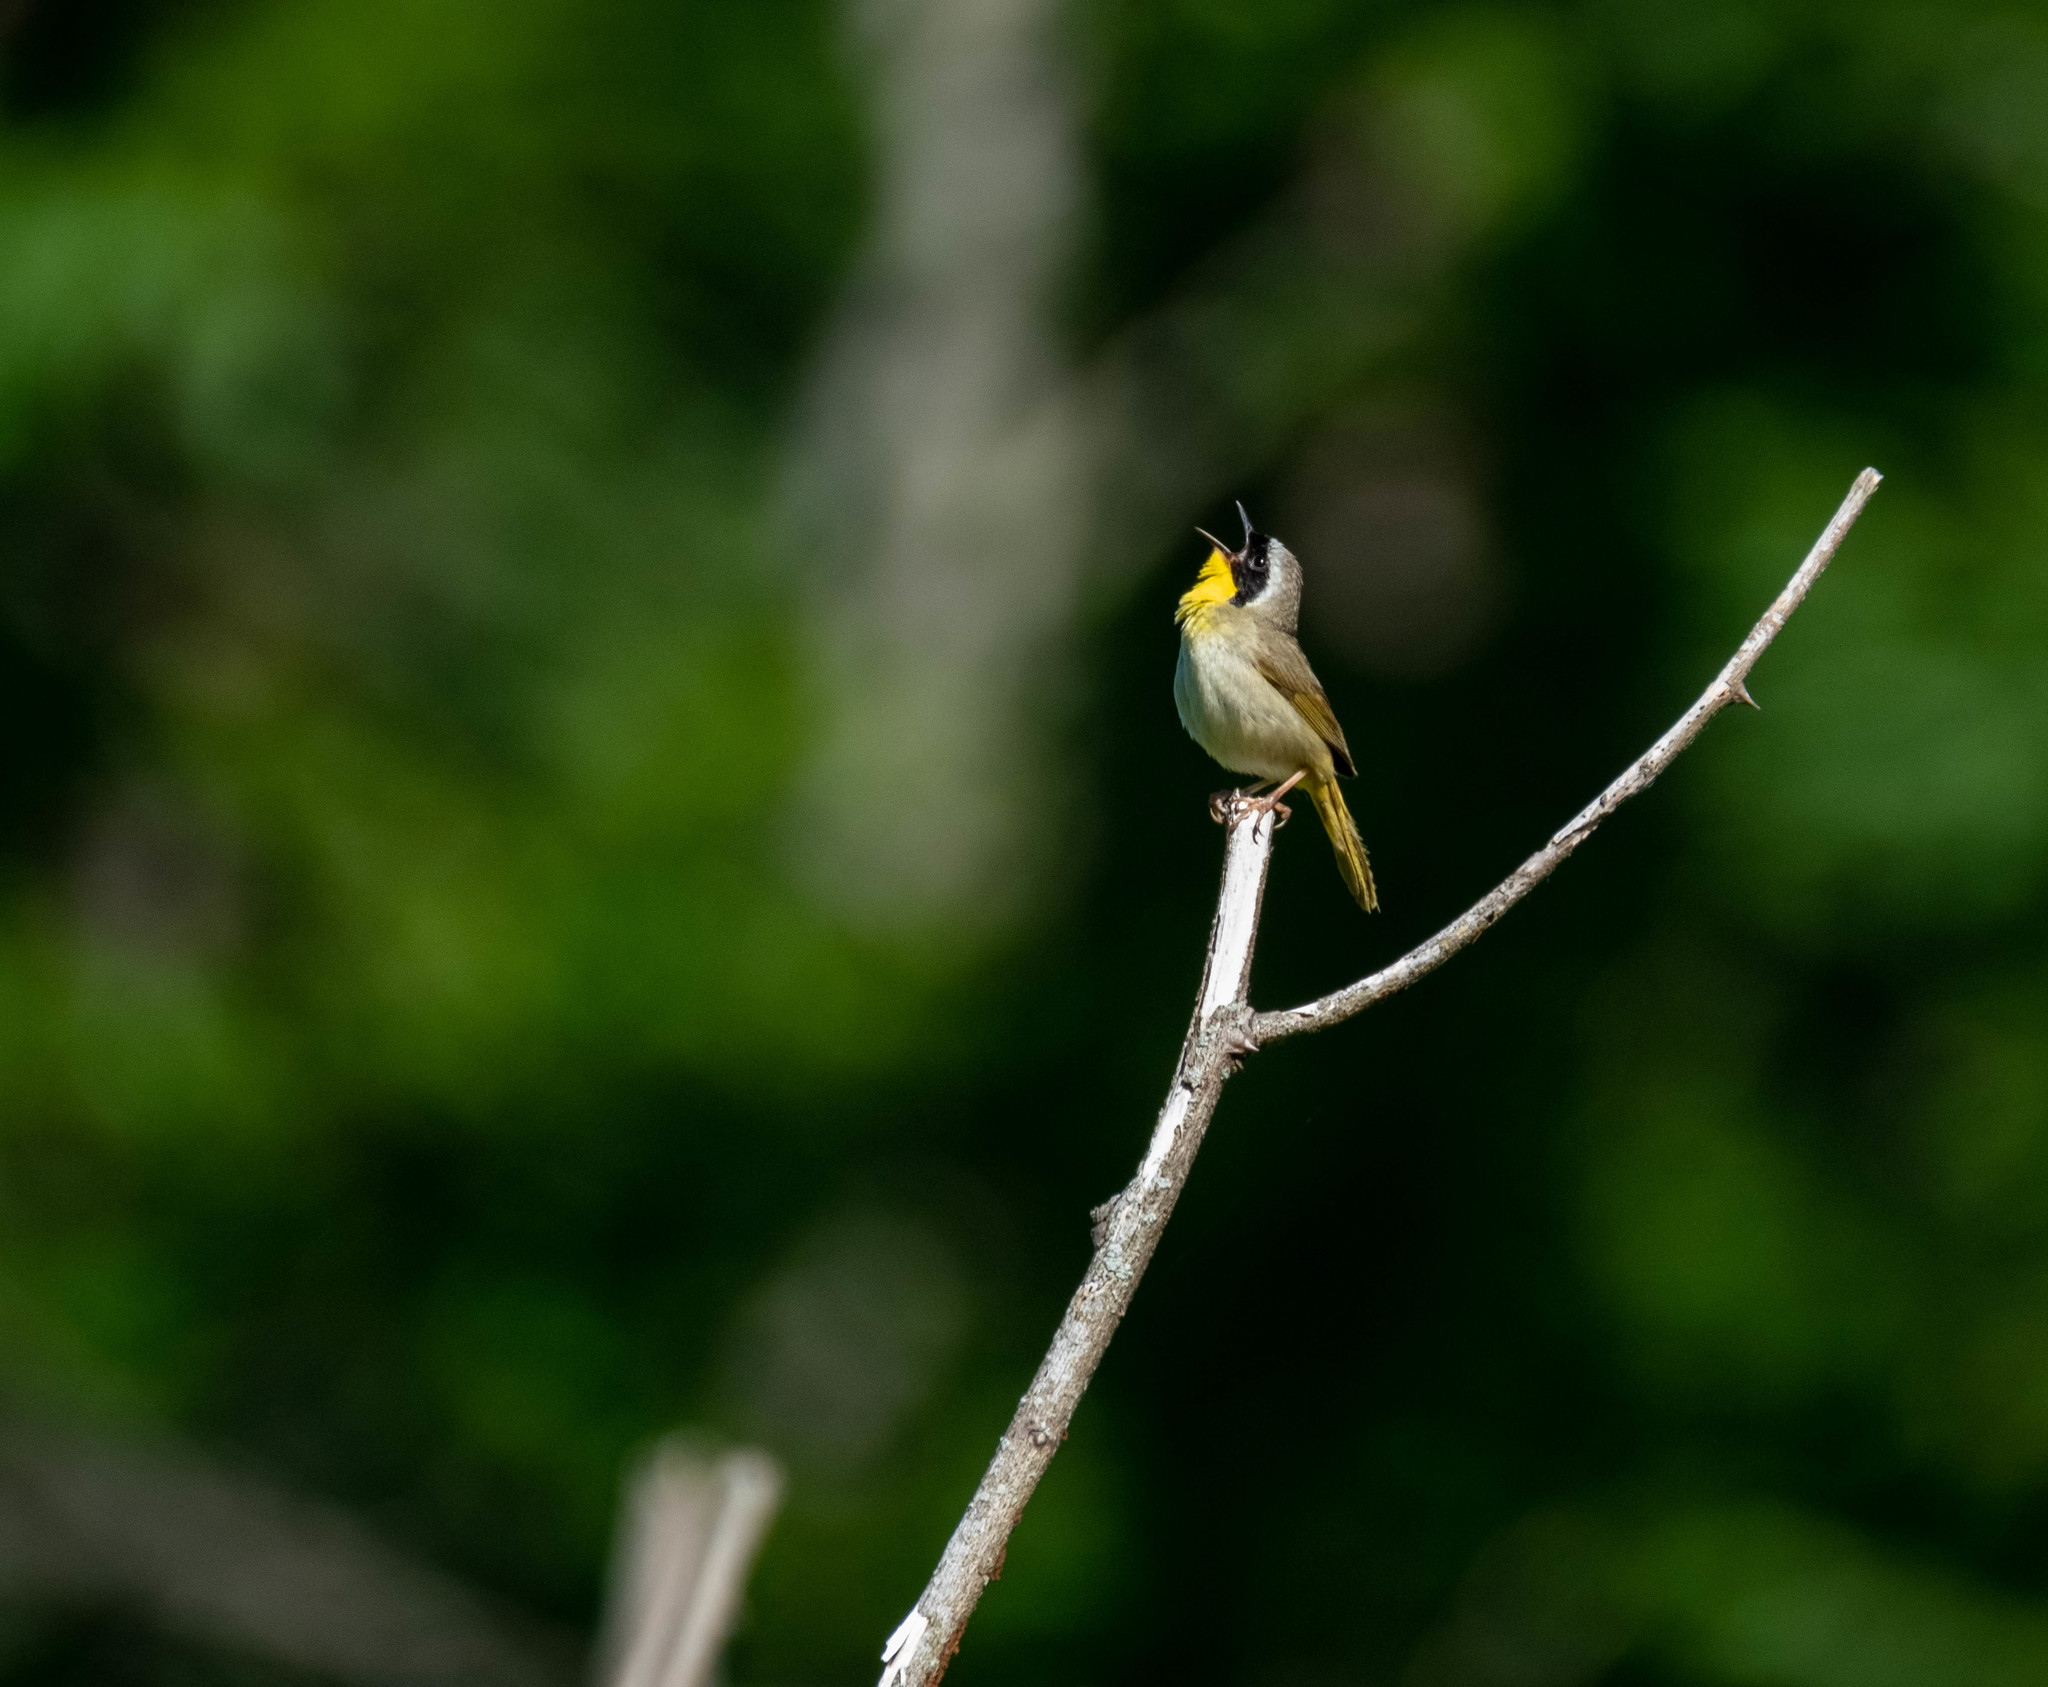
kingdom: Animalia
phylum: Chordata
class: Aves
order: Passeriformes
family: Parulidae
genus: Geothlypis
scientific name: Geothlypis trichas
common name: Common yellowthroat
